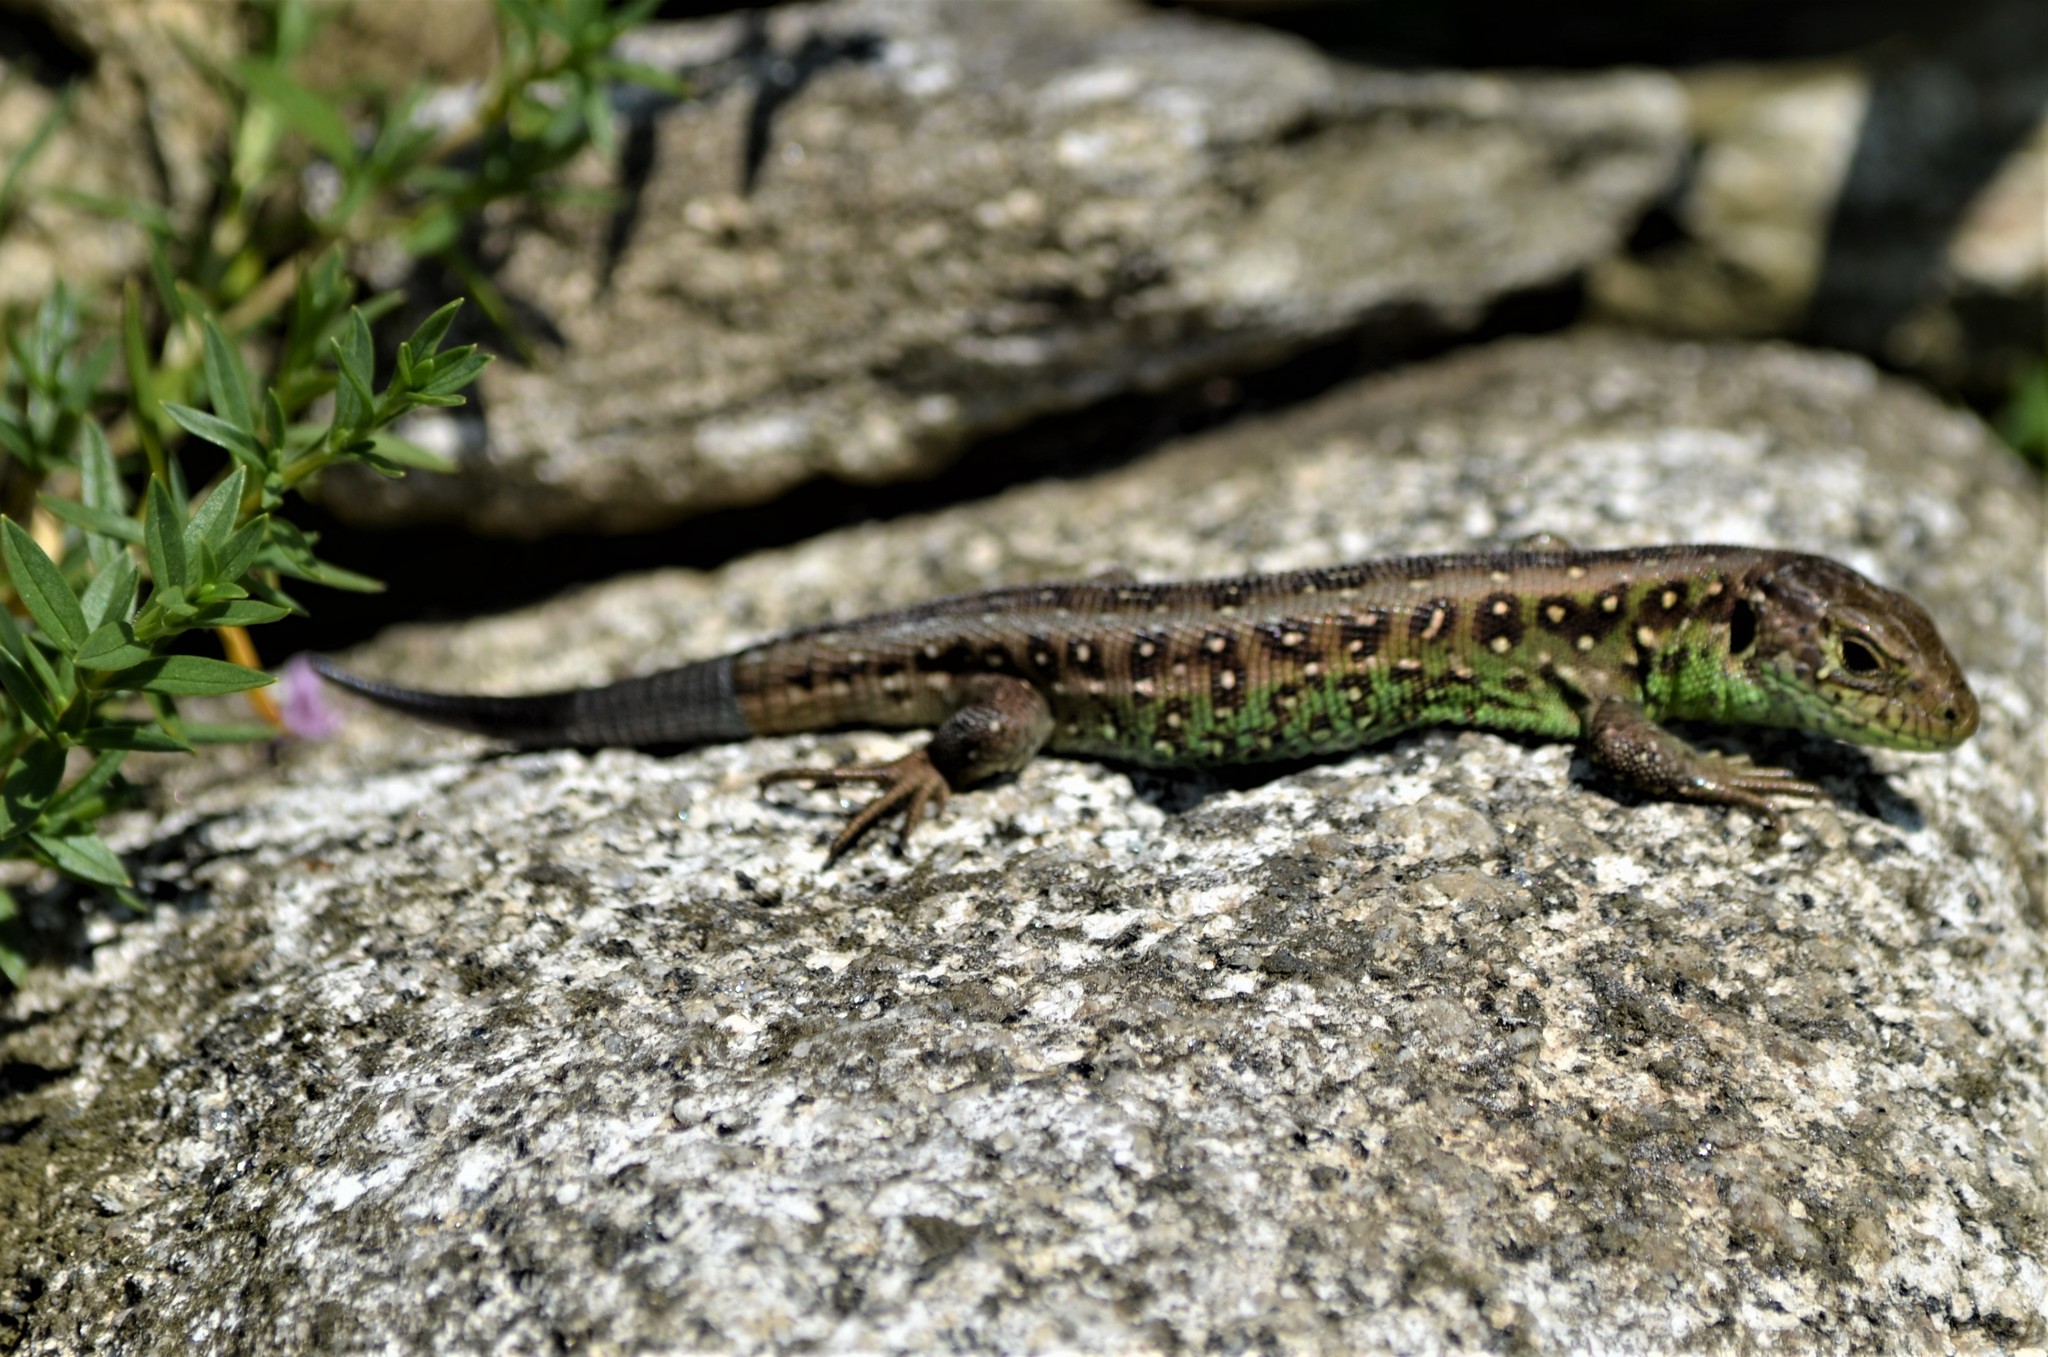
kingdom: Animalia
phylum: Chordata
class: Squamata
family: Lacertidae
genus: Lacerta
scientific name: Lacerta agilis
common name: Sand lizard
